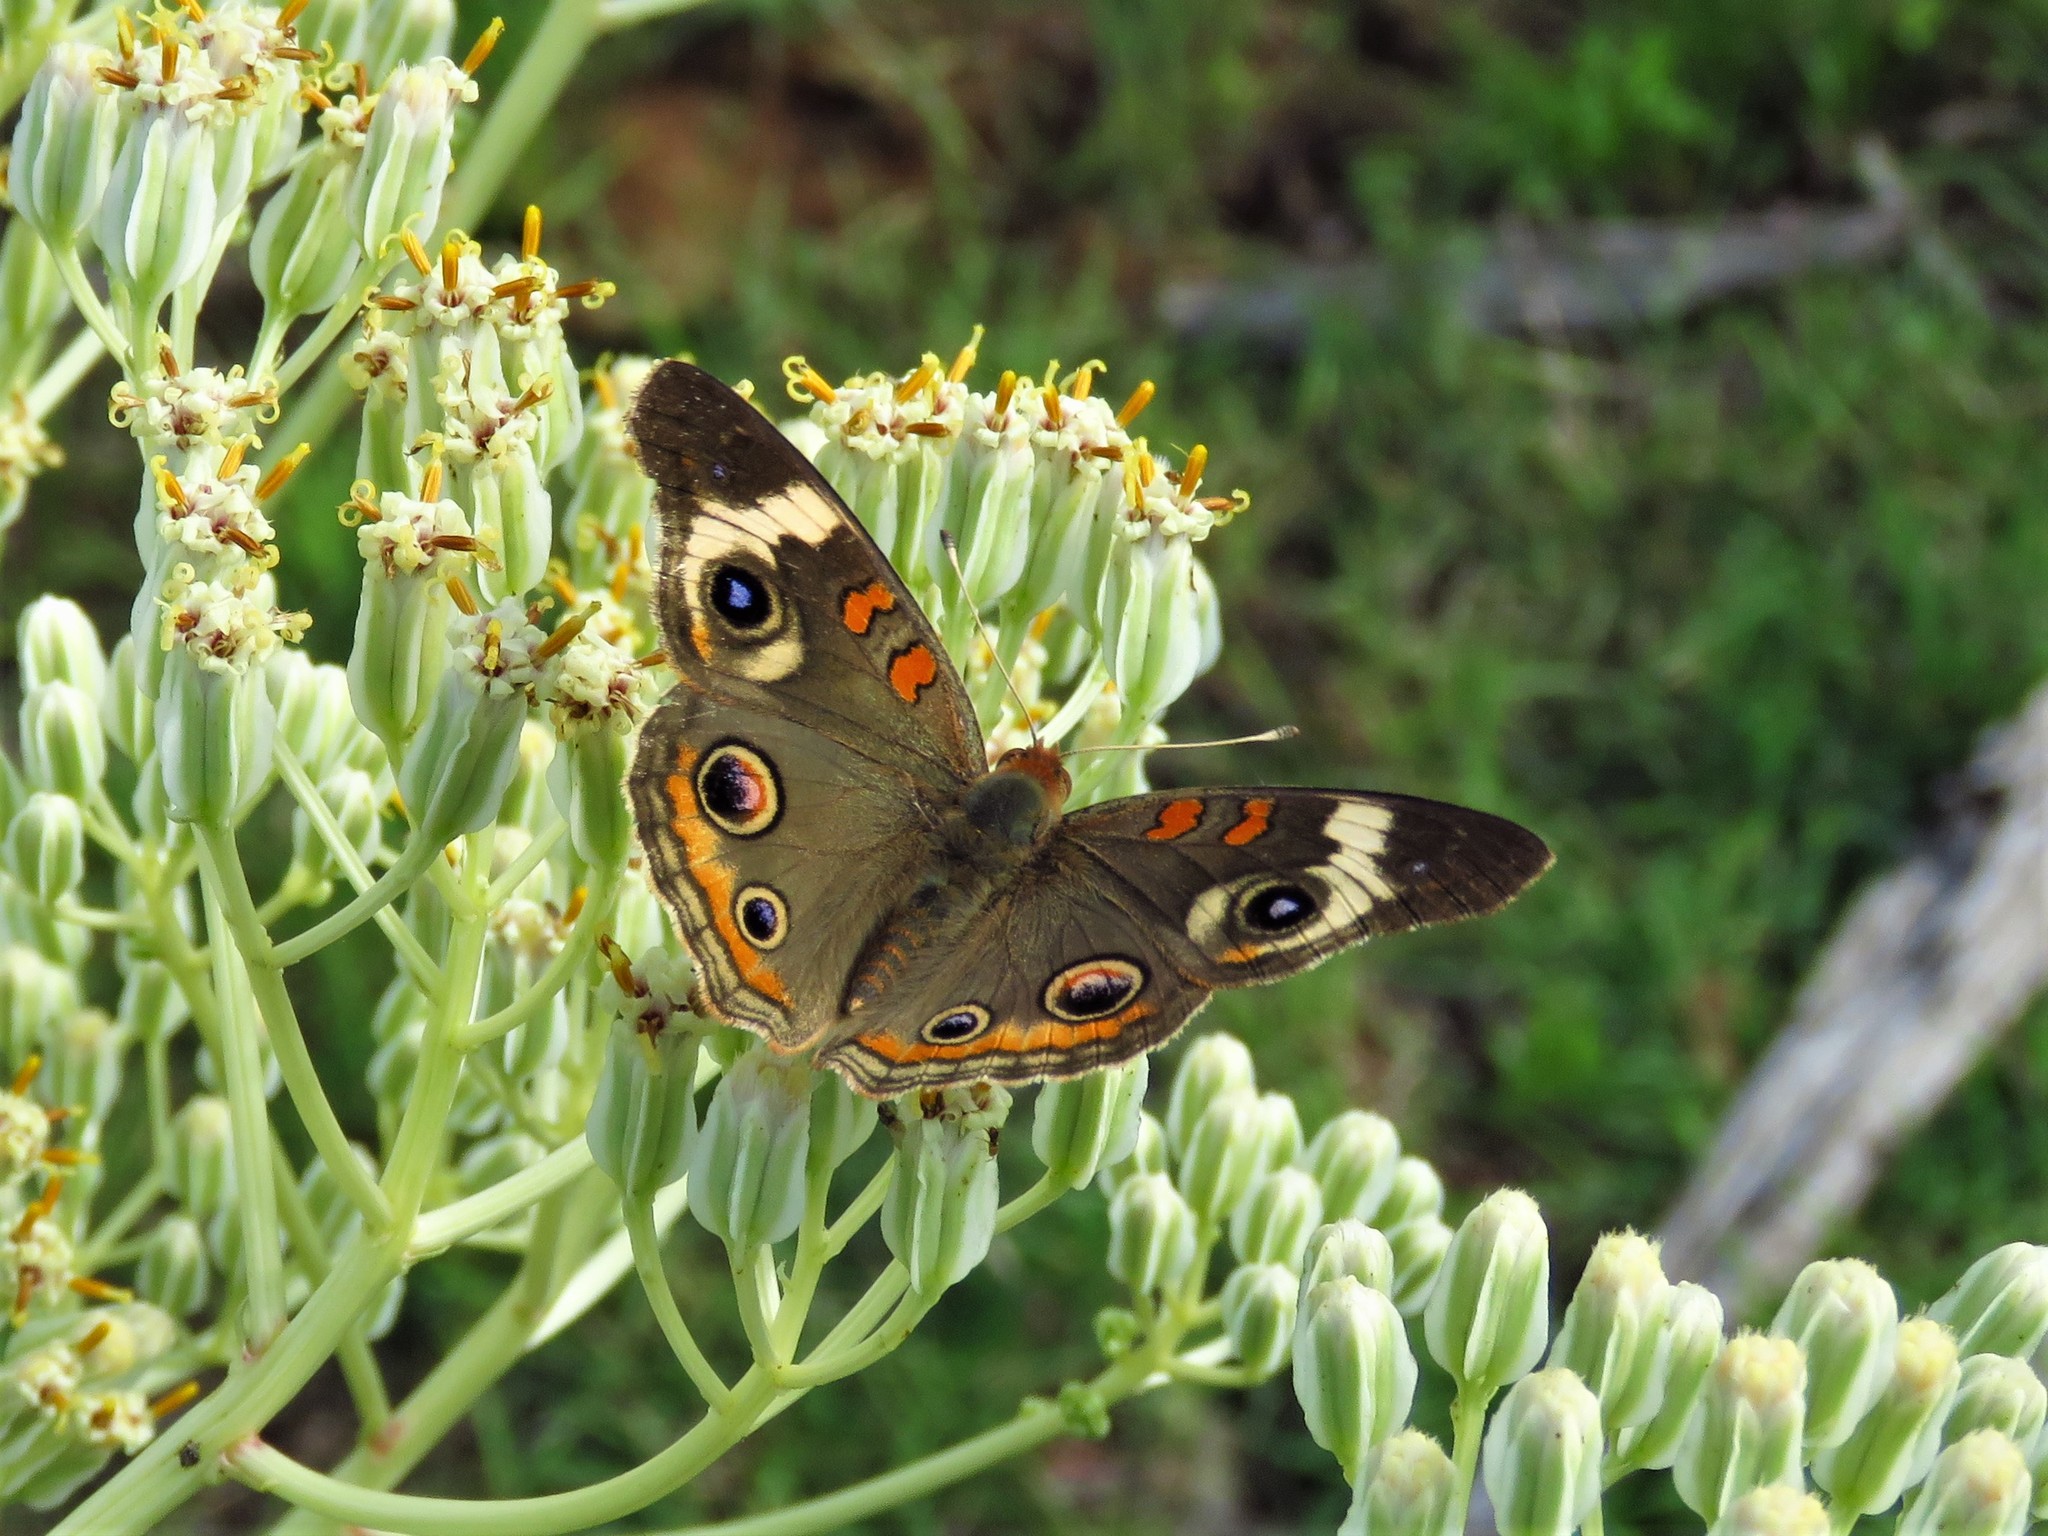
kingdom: Animalia
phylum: Arthropoda
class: Insecta
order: Lepidoptera
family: Nymphalidae
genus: Junonia
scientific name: Junonia coenia
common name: Common buckeye
